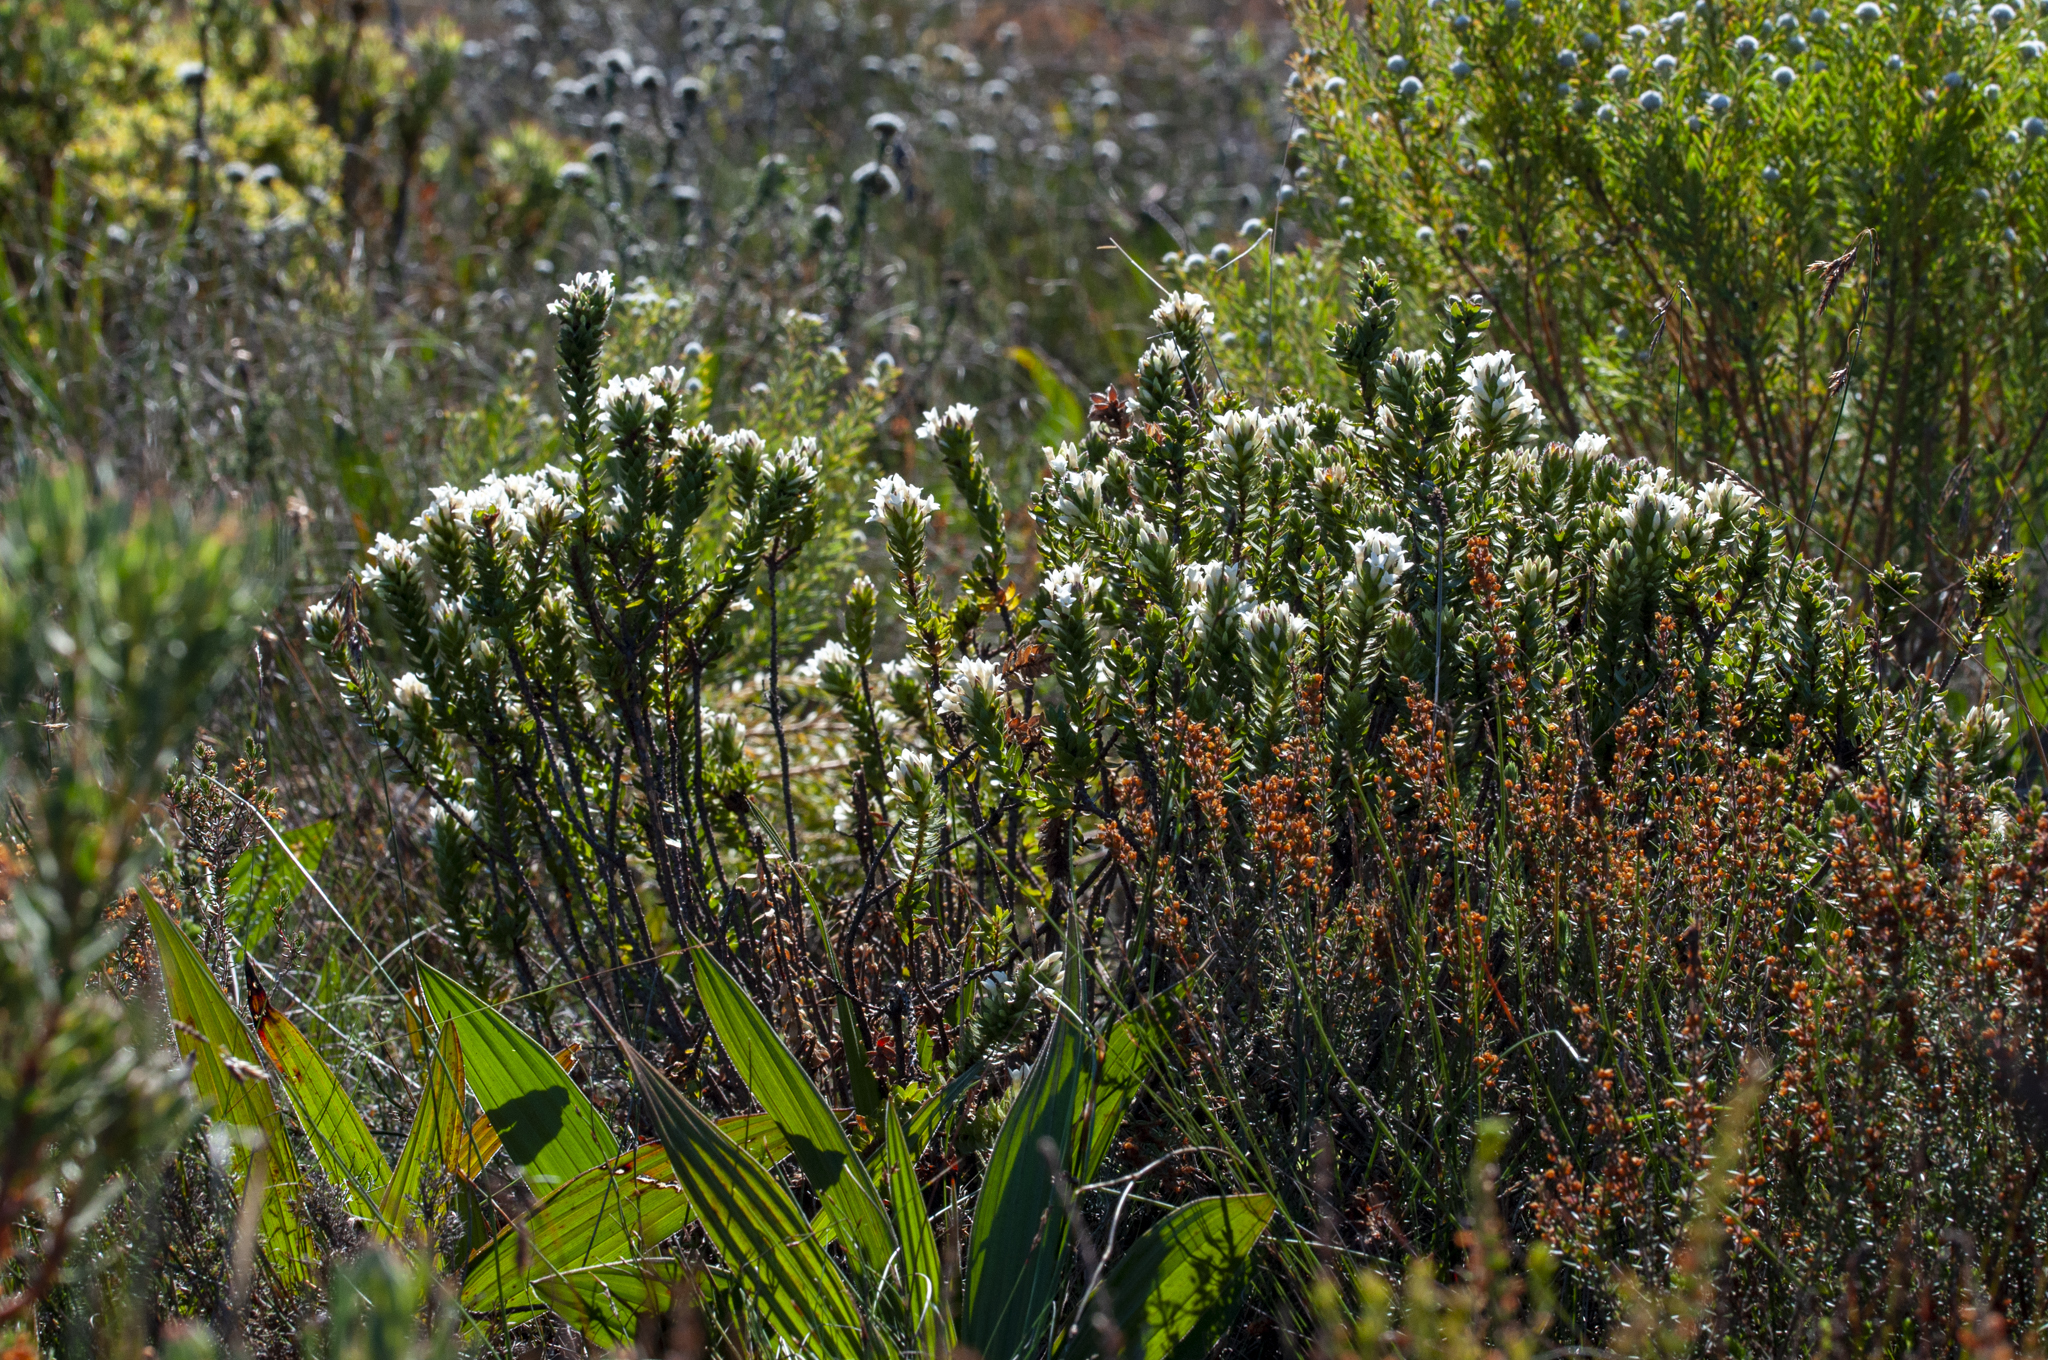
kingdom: Plantae
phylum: Tracheophyta
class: Magnoliopsida
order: Malvales
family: Thymelaeaceae
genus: Gnidia
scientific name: Gnidia ornata
